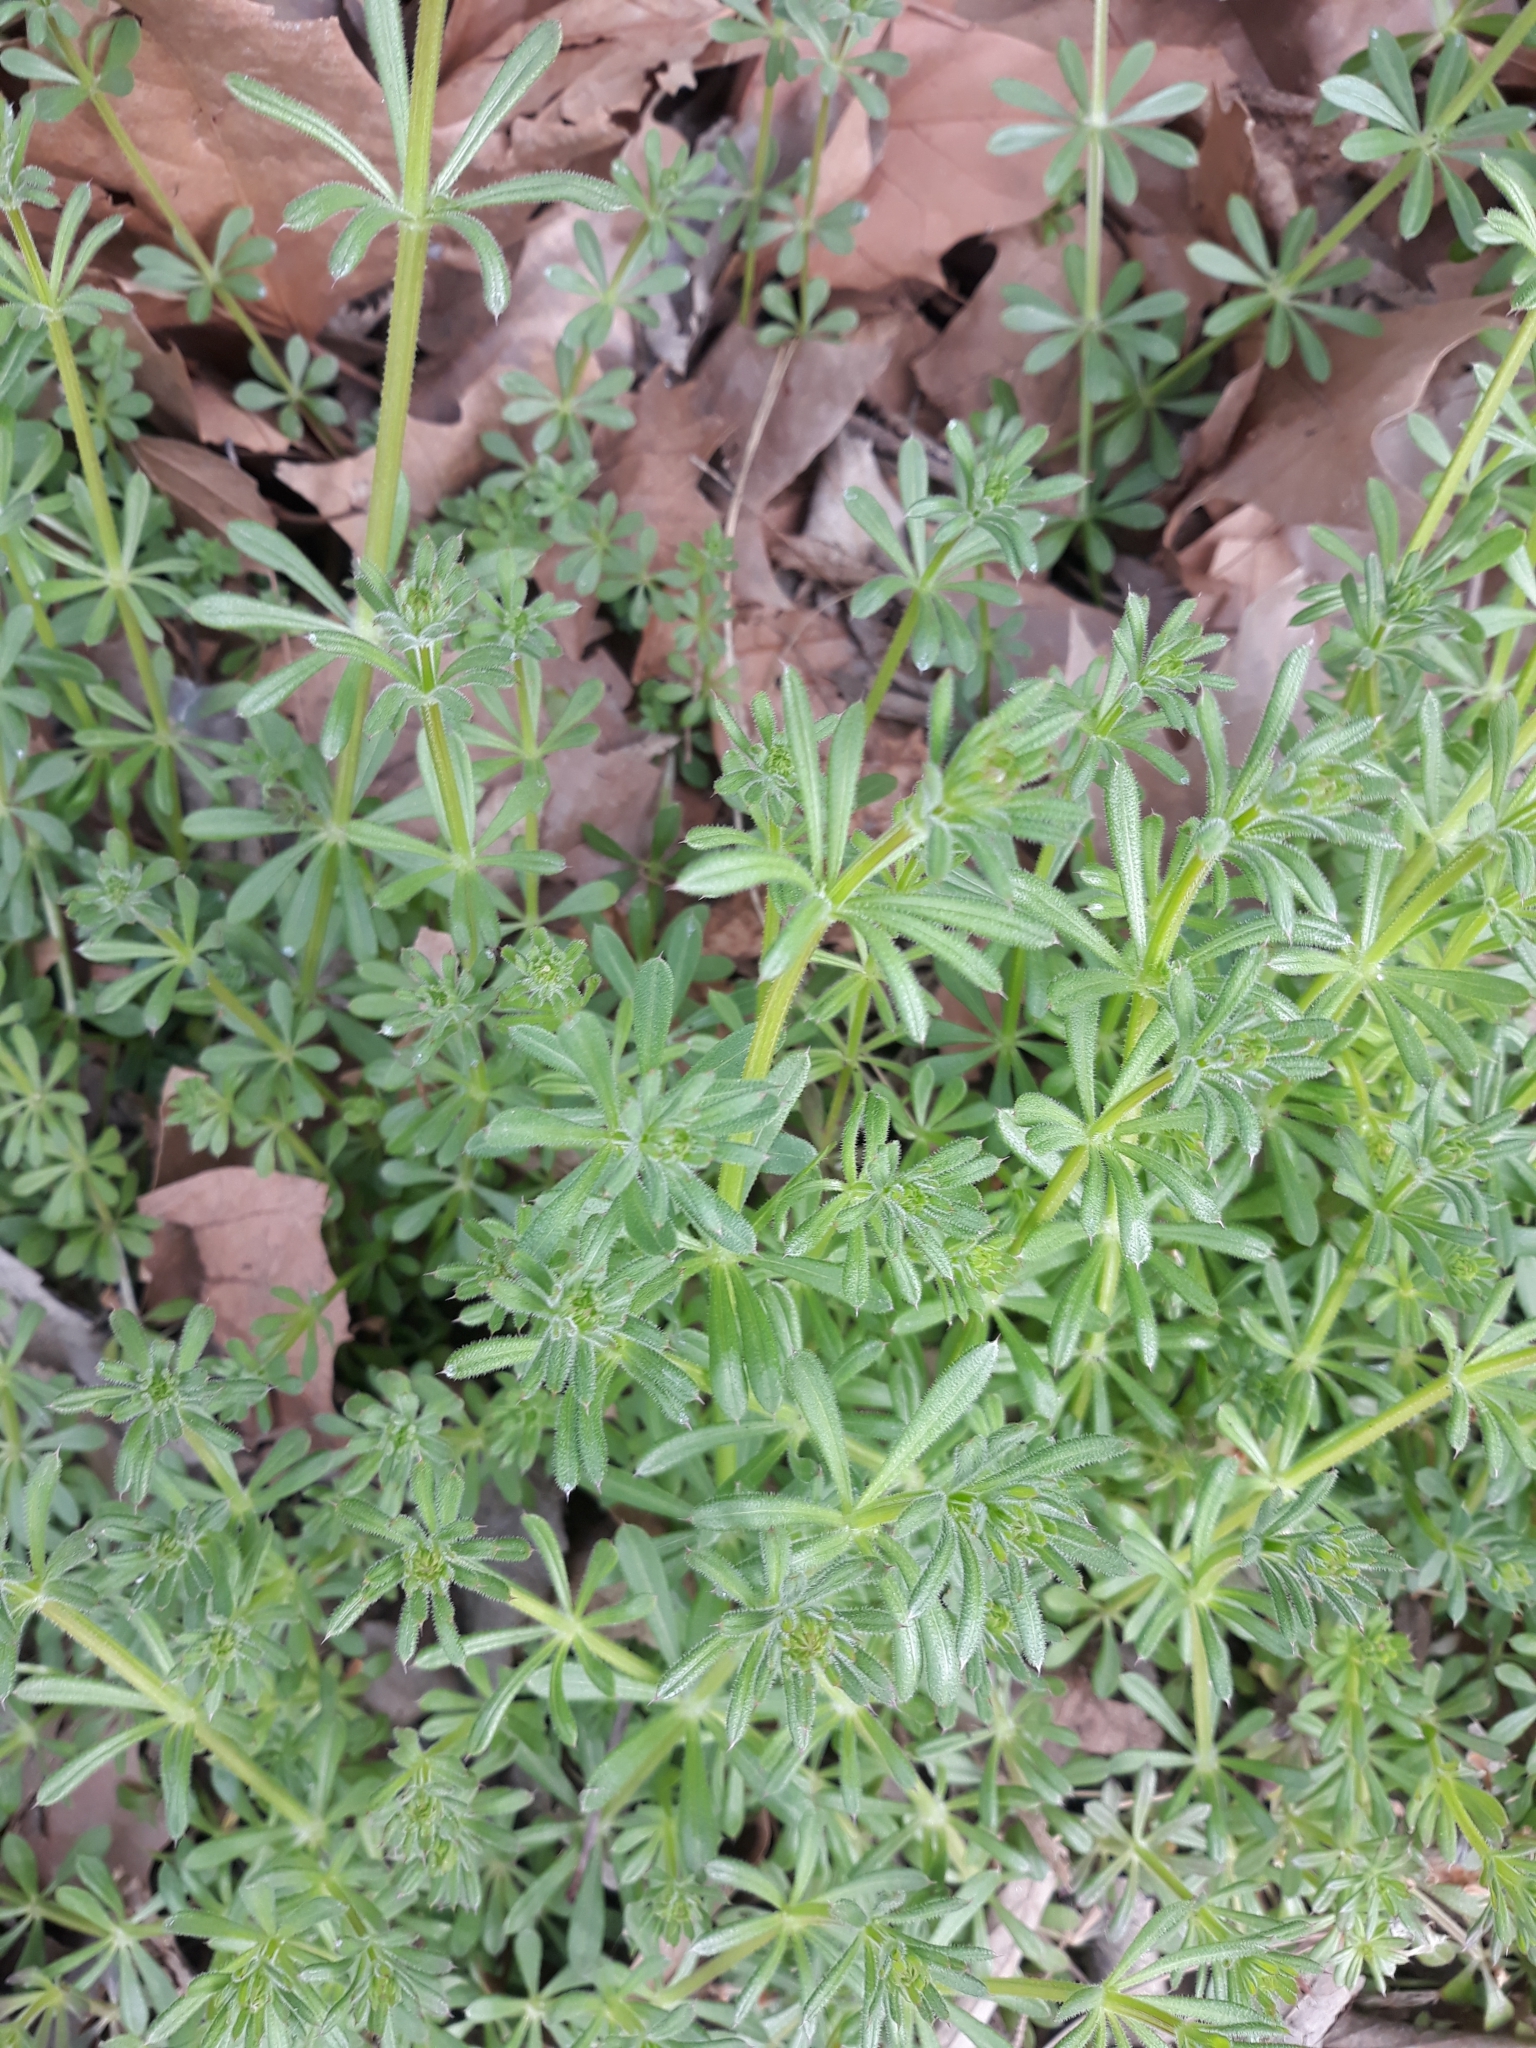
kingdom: Plantae
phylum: Tracheophyta
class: Magnoliopsida
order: Gentianales
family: Rubiaceae
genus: Galium
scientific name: Galium aparine
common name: Cleavers
